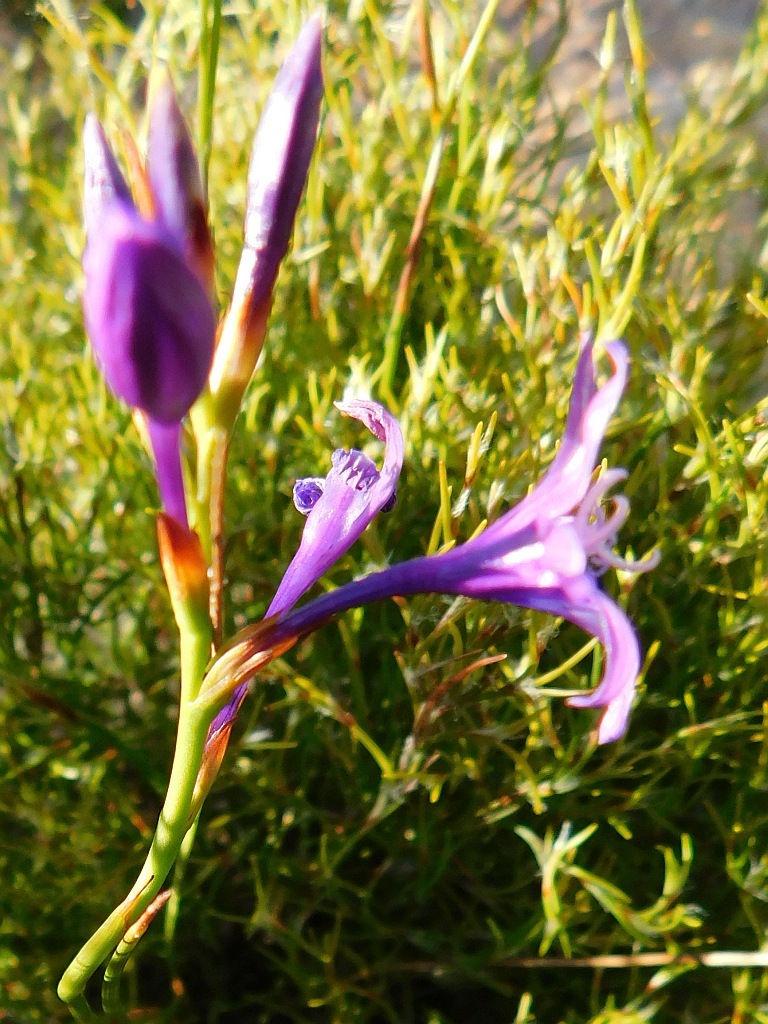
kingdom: Plantae
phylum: Tracheophyta
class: Liliopsida
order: Asparagales
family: Iridaceae
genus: Thereianthus
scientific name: Thereianthus bracteolatus
